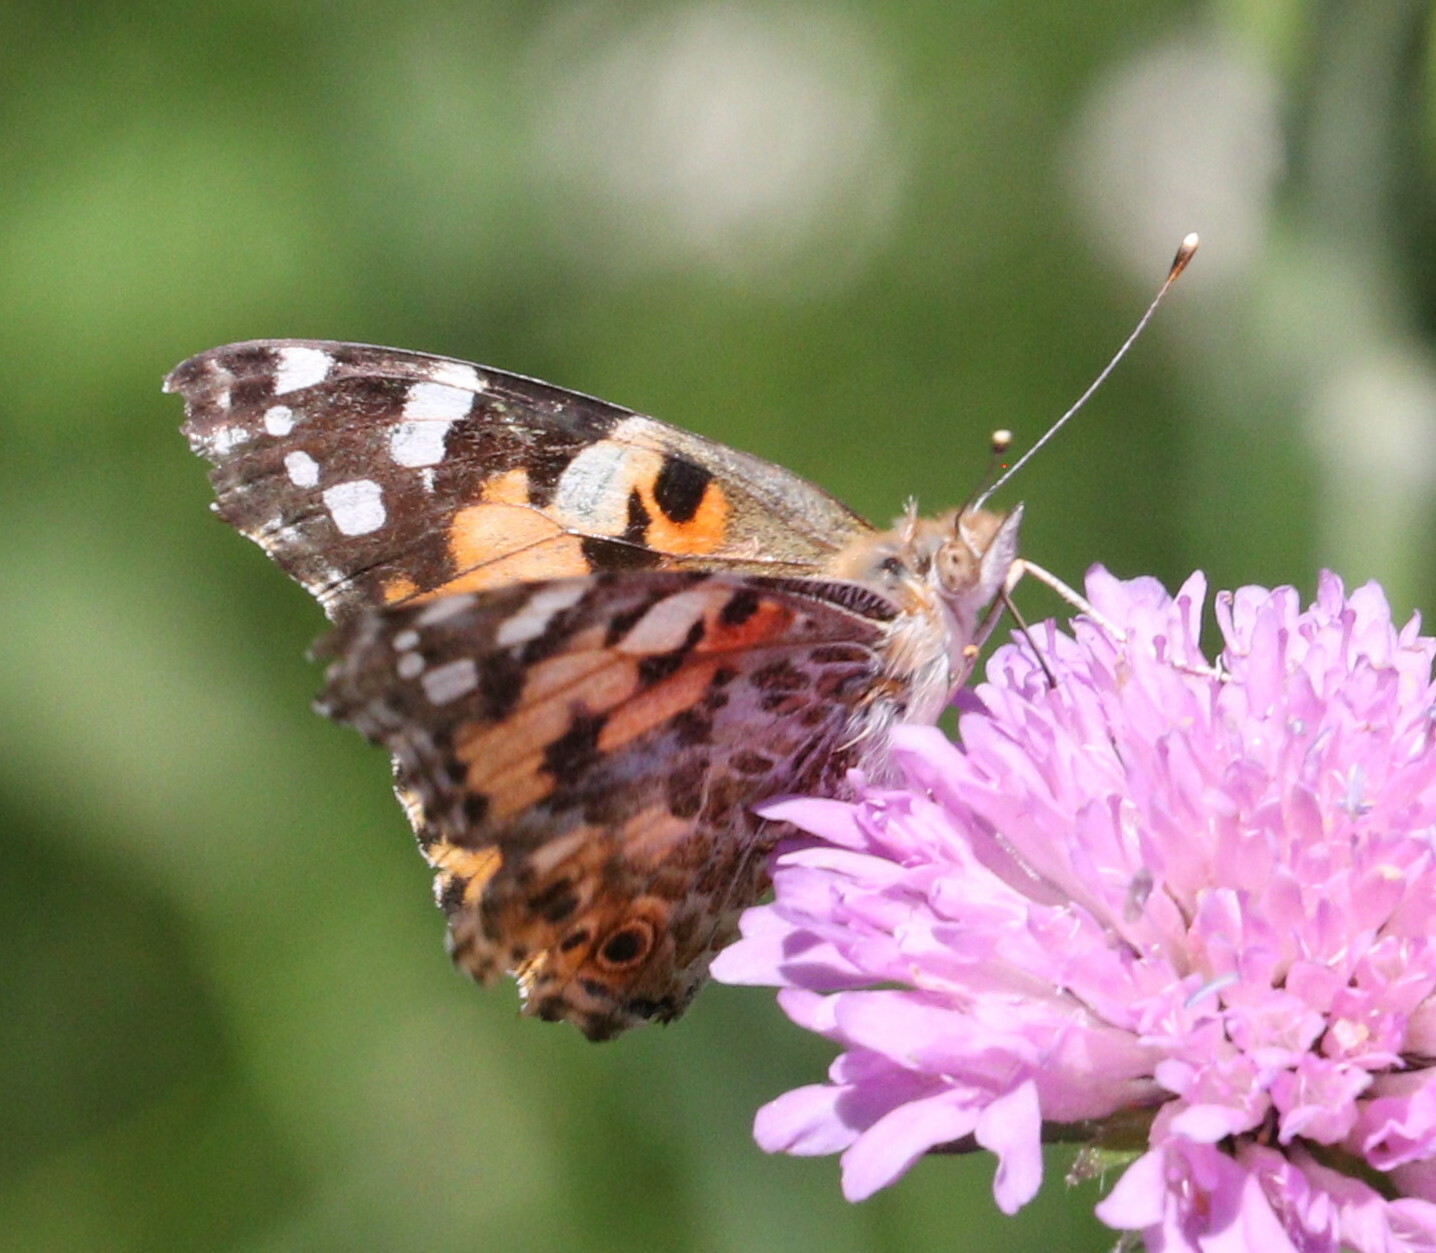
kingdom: Animalia
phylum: Arthropoda
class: Insecta
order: Lepidoptera
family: Nymphalidae
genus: Vanessa
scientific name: Vanessa cardui
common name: Painted lady
